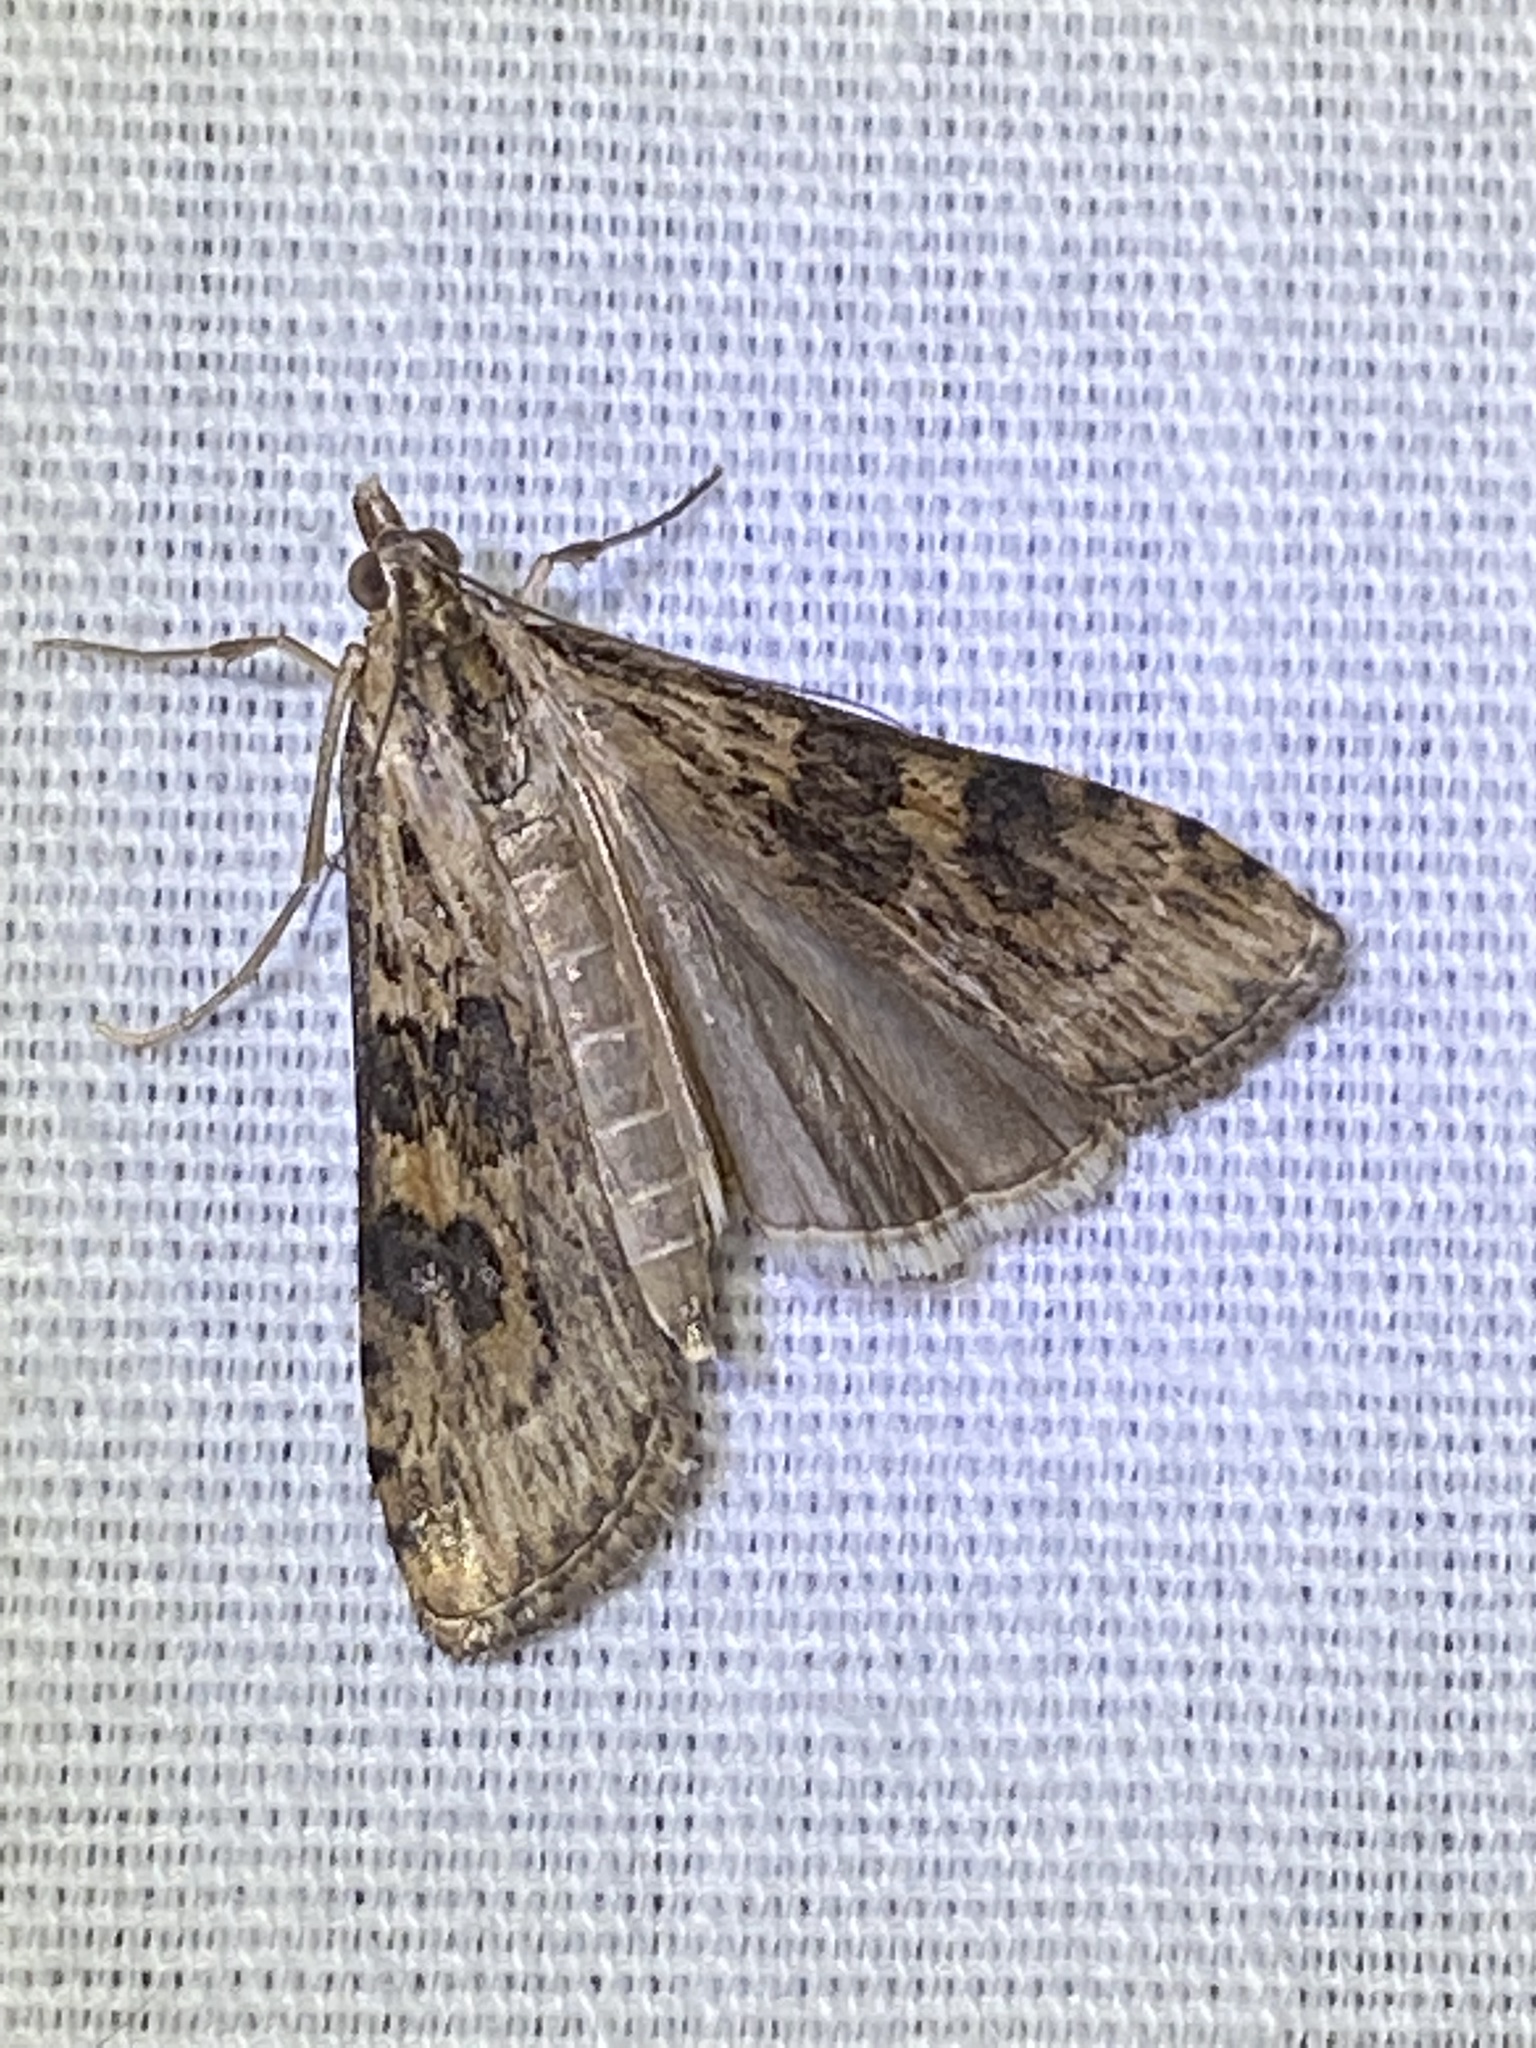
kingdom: Animalia
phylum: Arthropoda
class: Insecta
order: Lepidoptera
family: Crambidae
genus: Nomophila
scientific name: Nomophila nearctica
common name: American rush veneer
